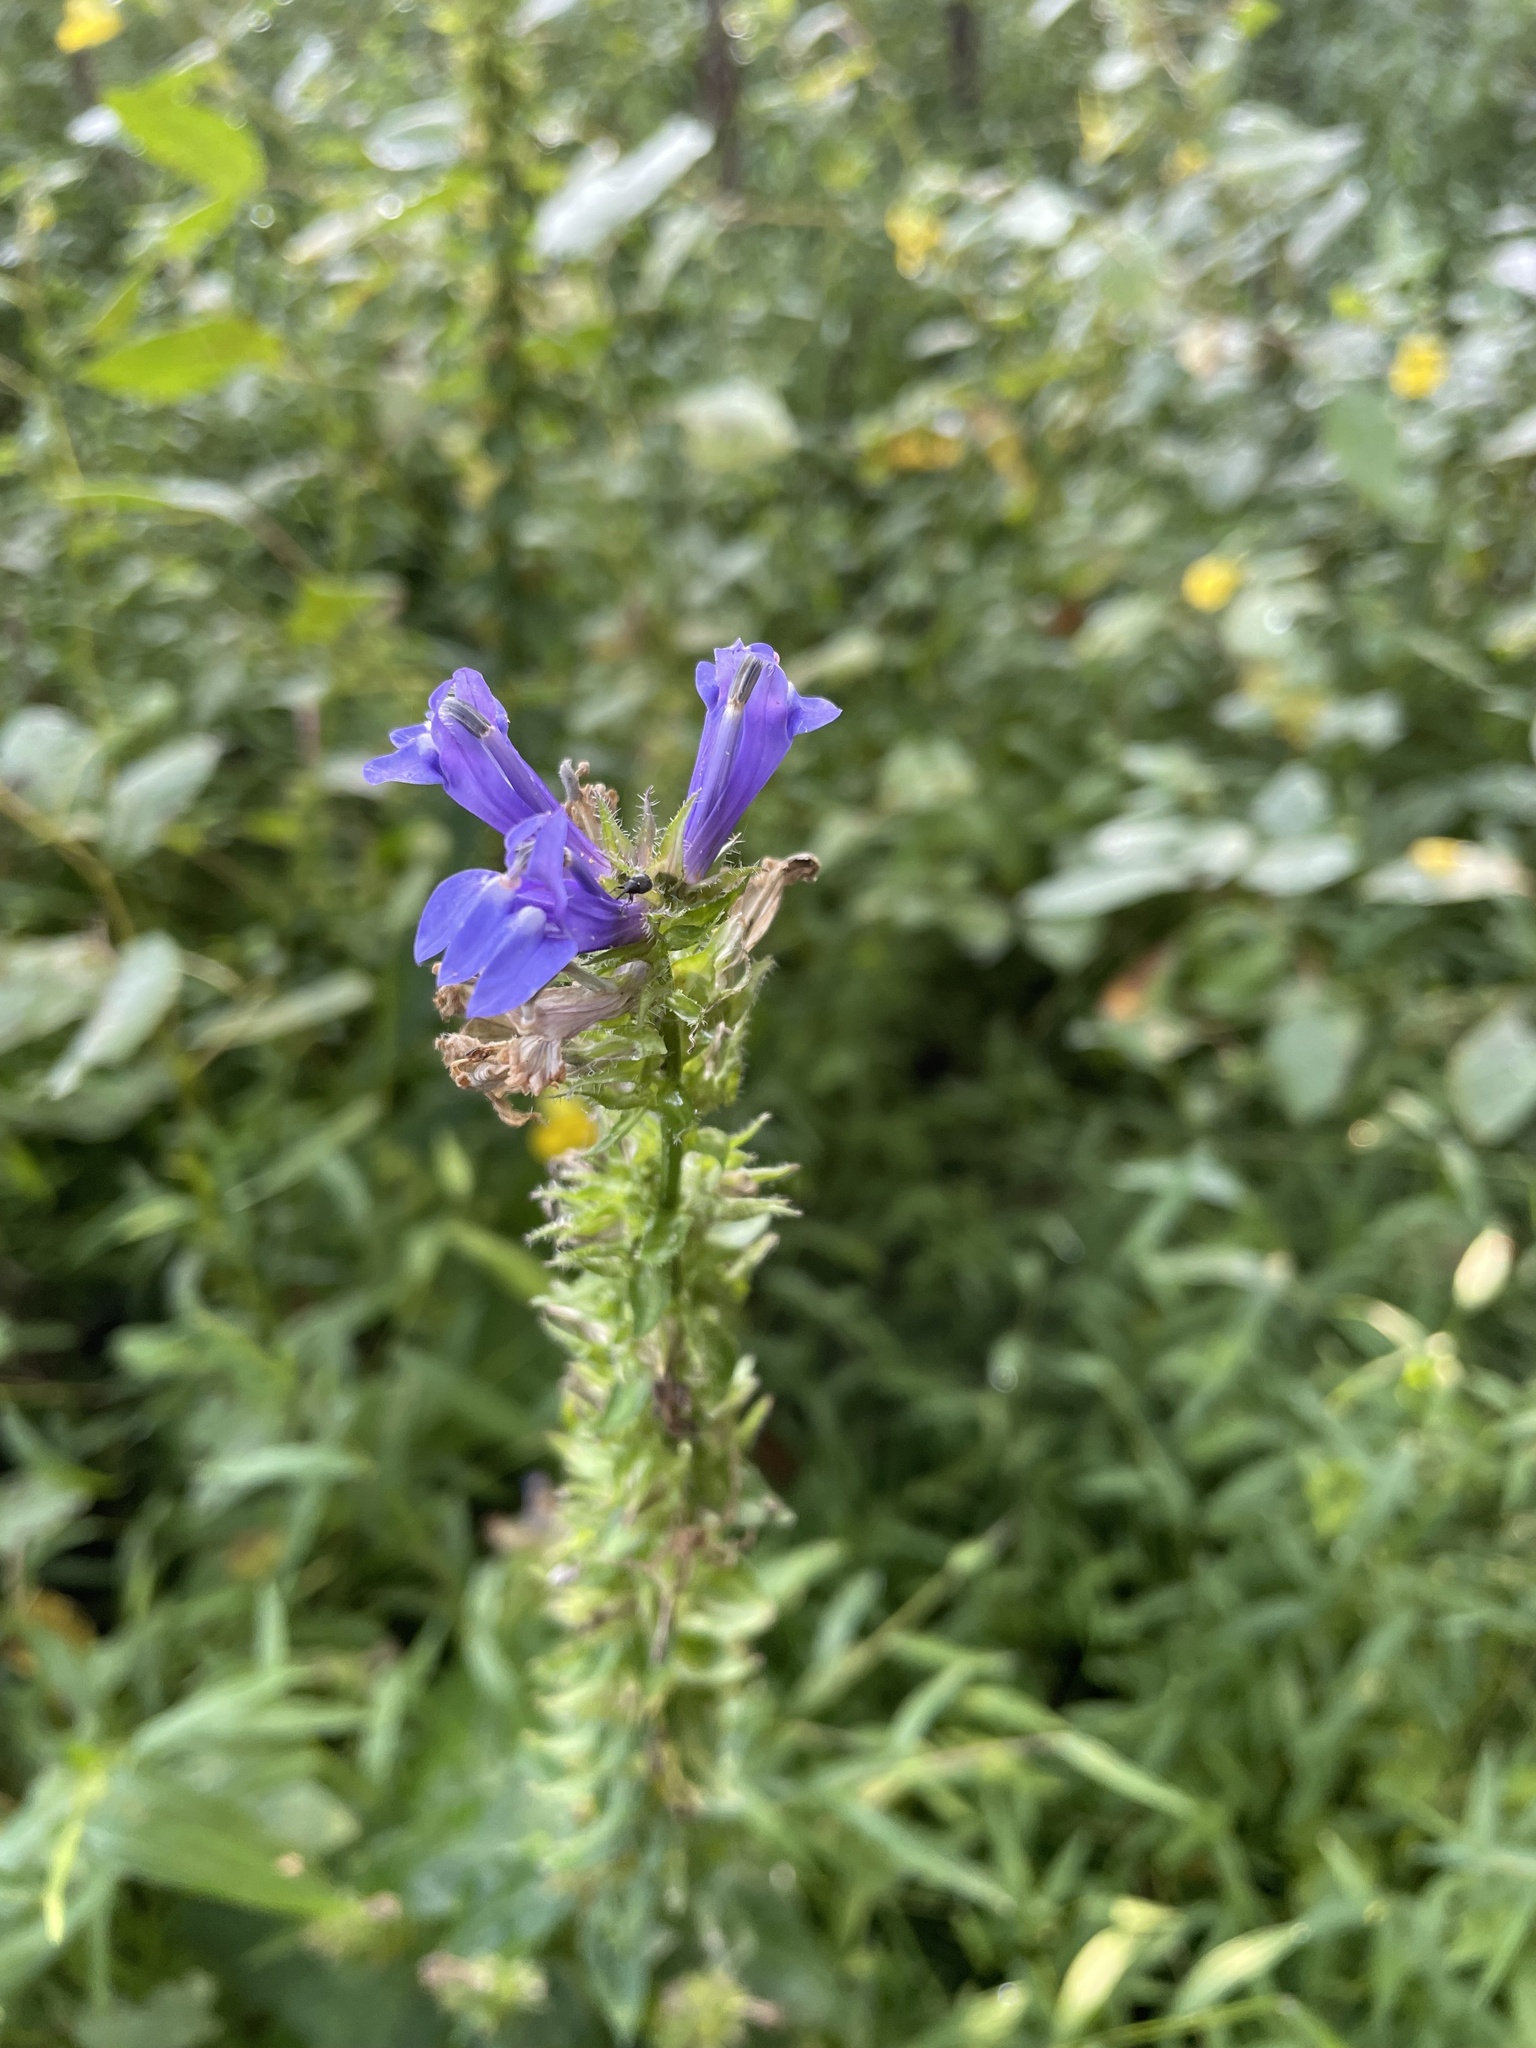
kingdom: Plantae
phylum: Tracheophyta
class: Magnoliopsida
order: Asterales
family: Campanulaceae
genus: Lobelia
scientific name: Lobelia siphilitica
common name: Great lobelia
